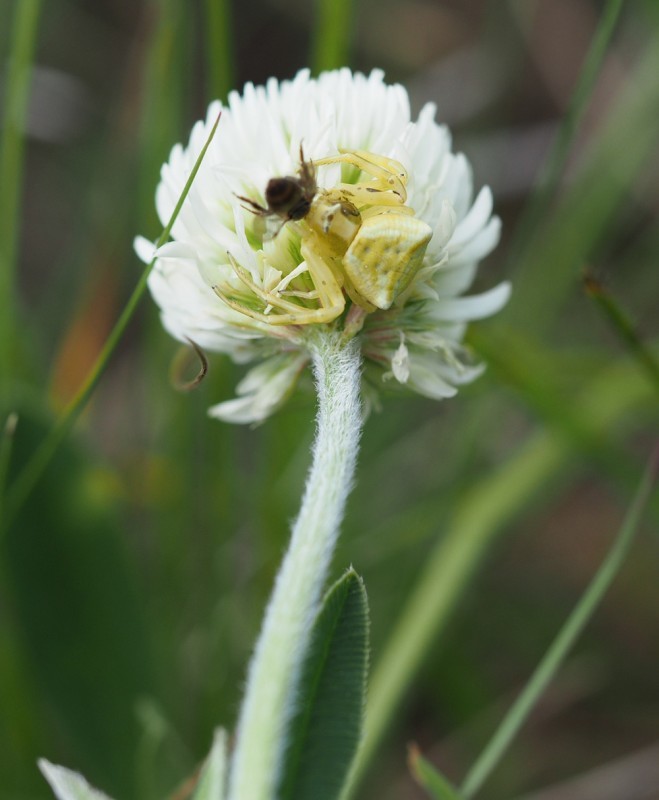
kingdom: Plantae
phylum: Tracheophyta
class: Magnoliopsida
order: Fabales
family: Fabaceae
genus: Trifolium
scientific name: Trifolium montanum
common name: Mountain clover
